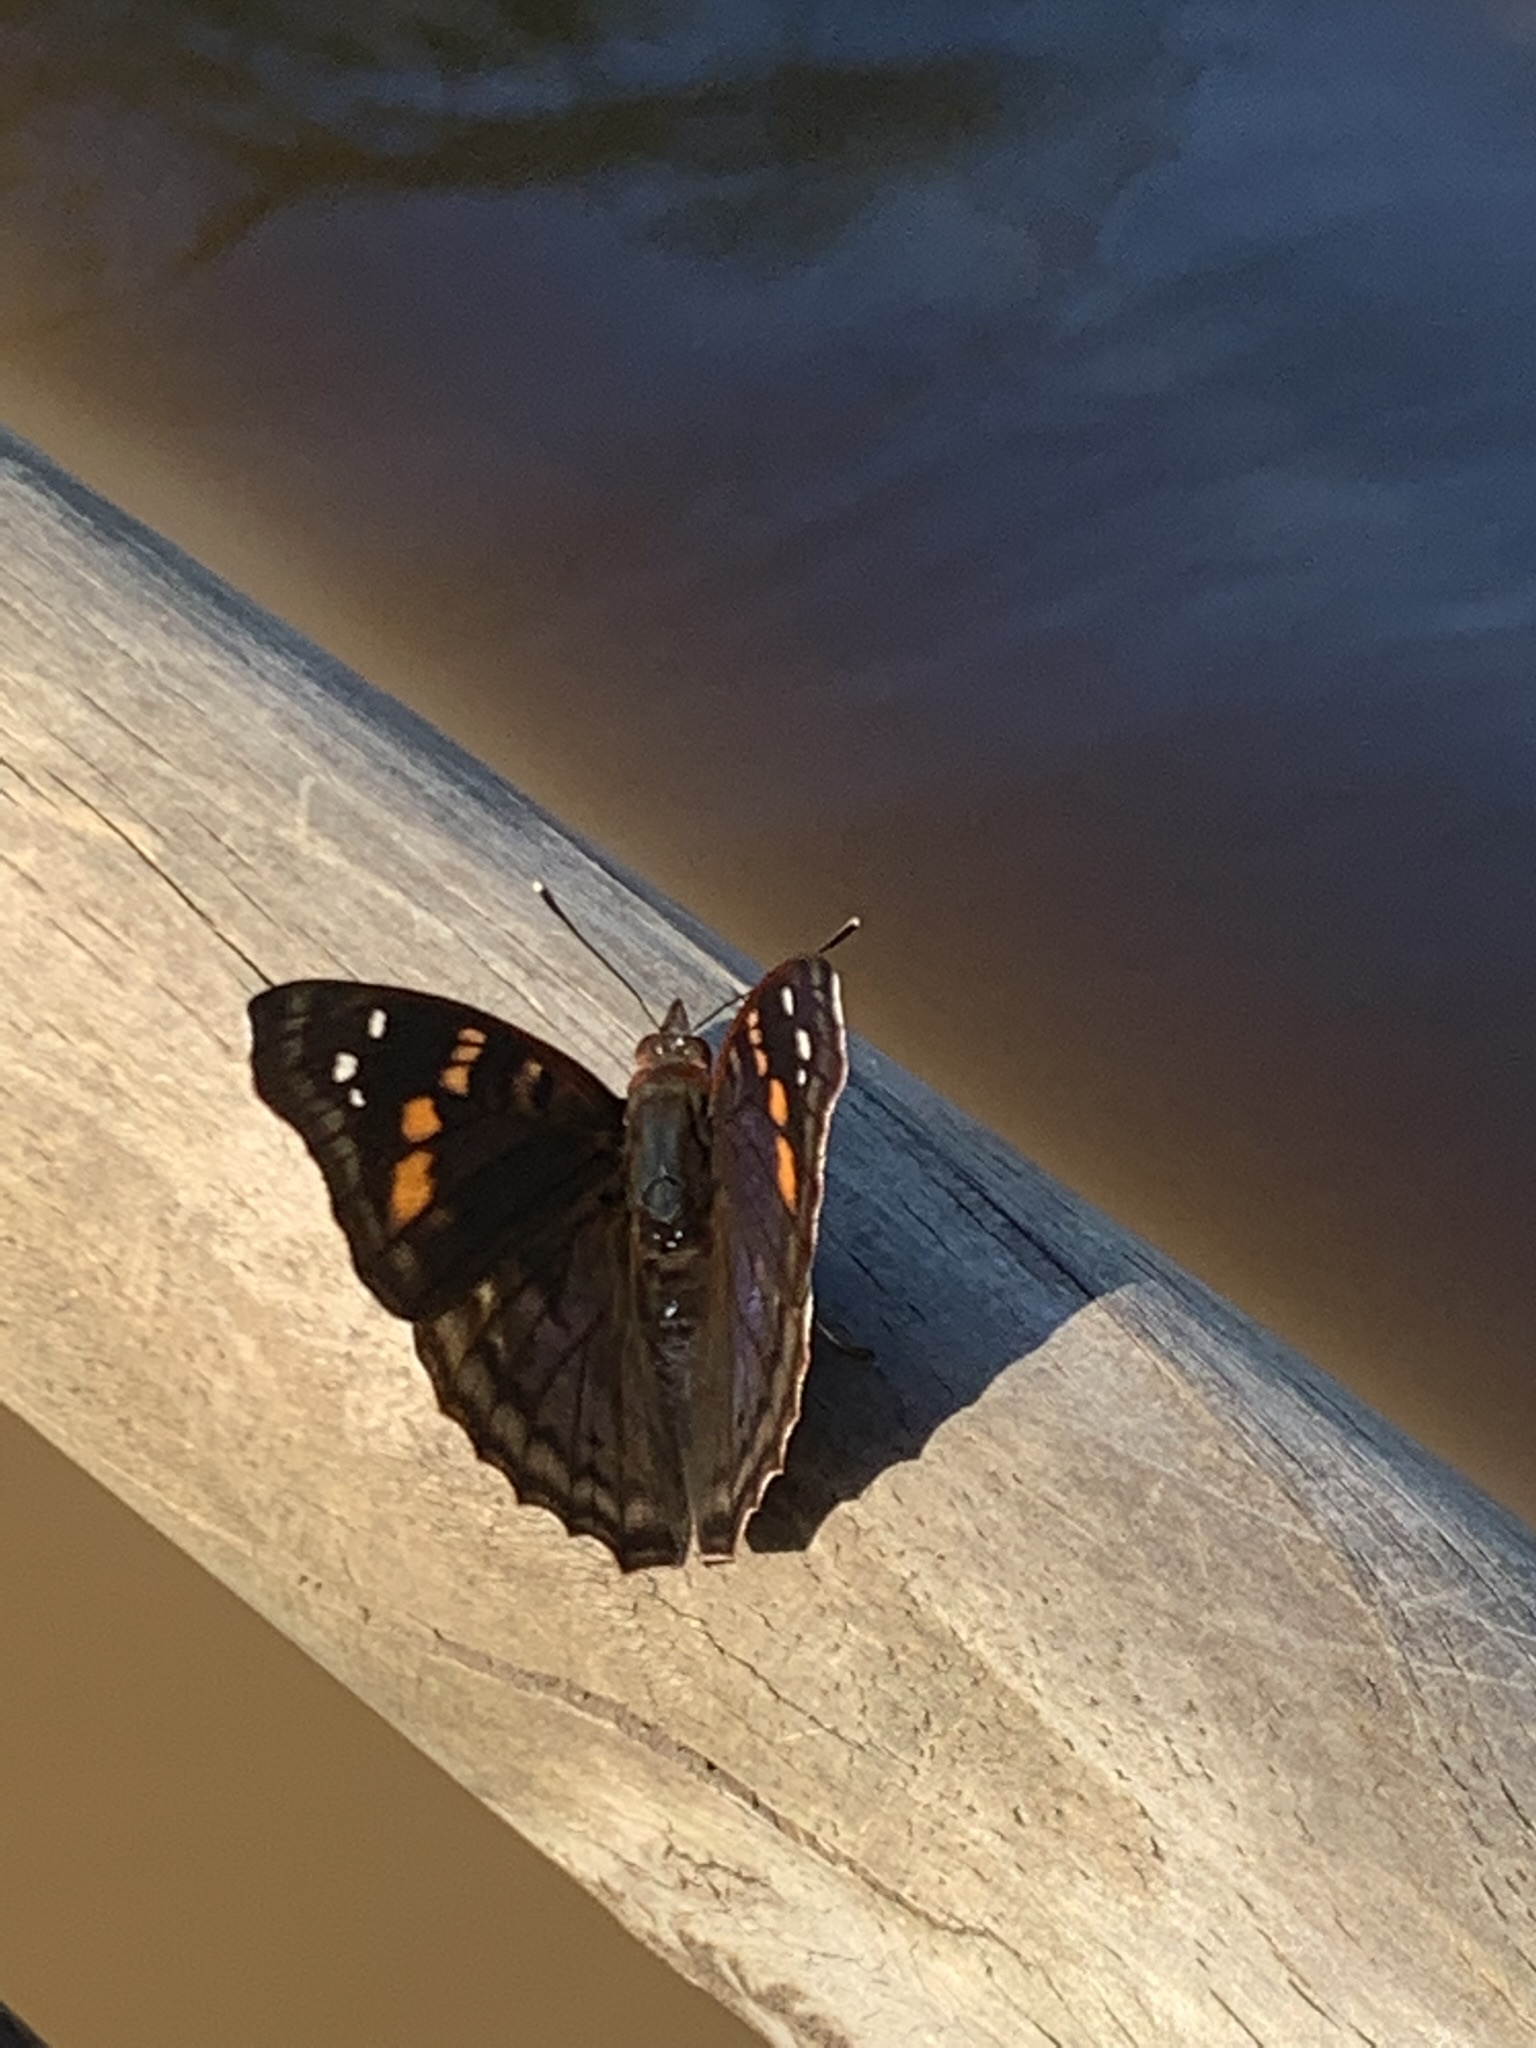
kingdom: Animalia
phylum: Arthropoda
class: Insecta
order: Lepidoptera
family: Nymphalidae
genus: Doxocopa
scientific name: Doxocopa agathina
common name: Agathina emperor
